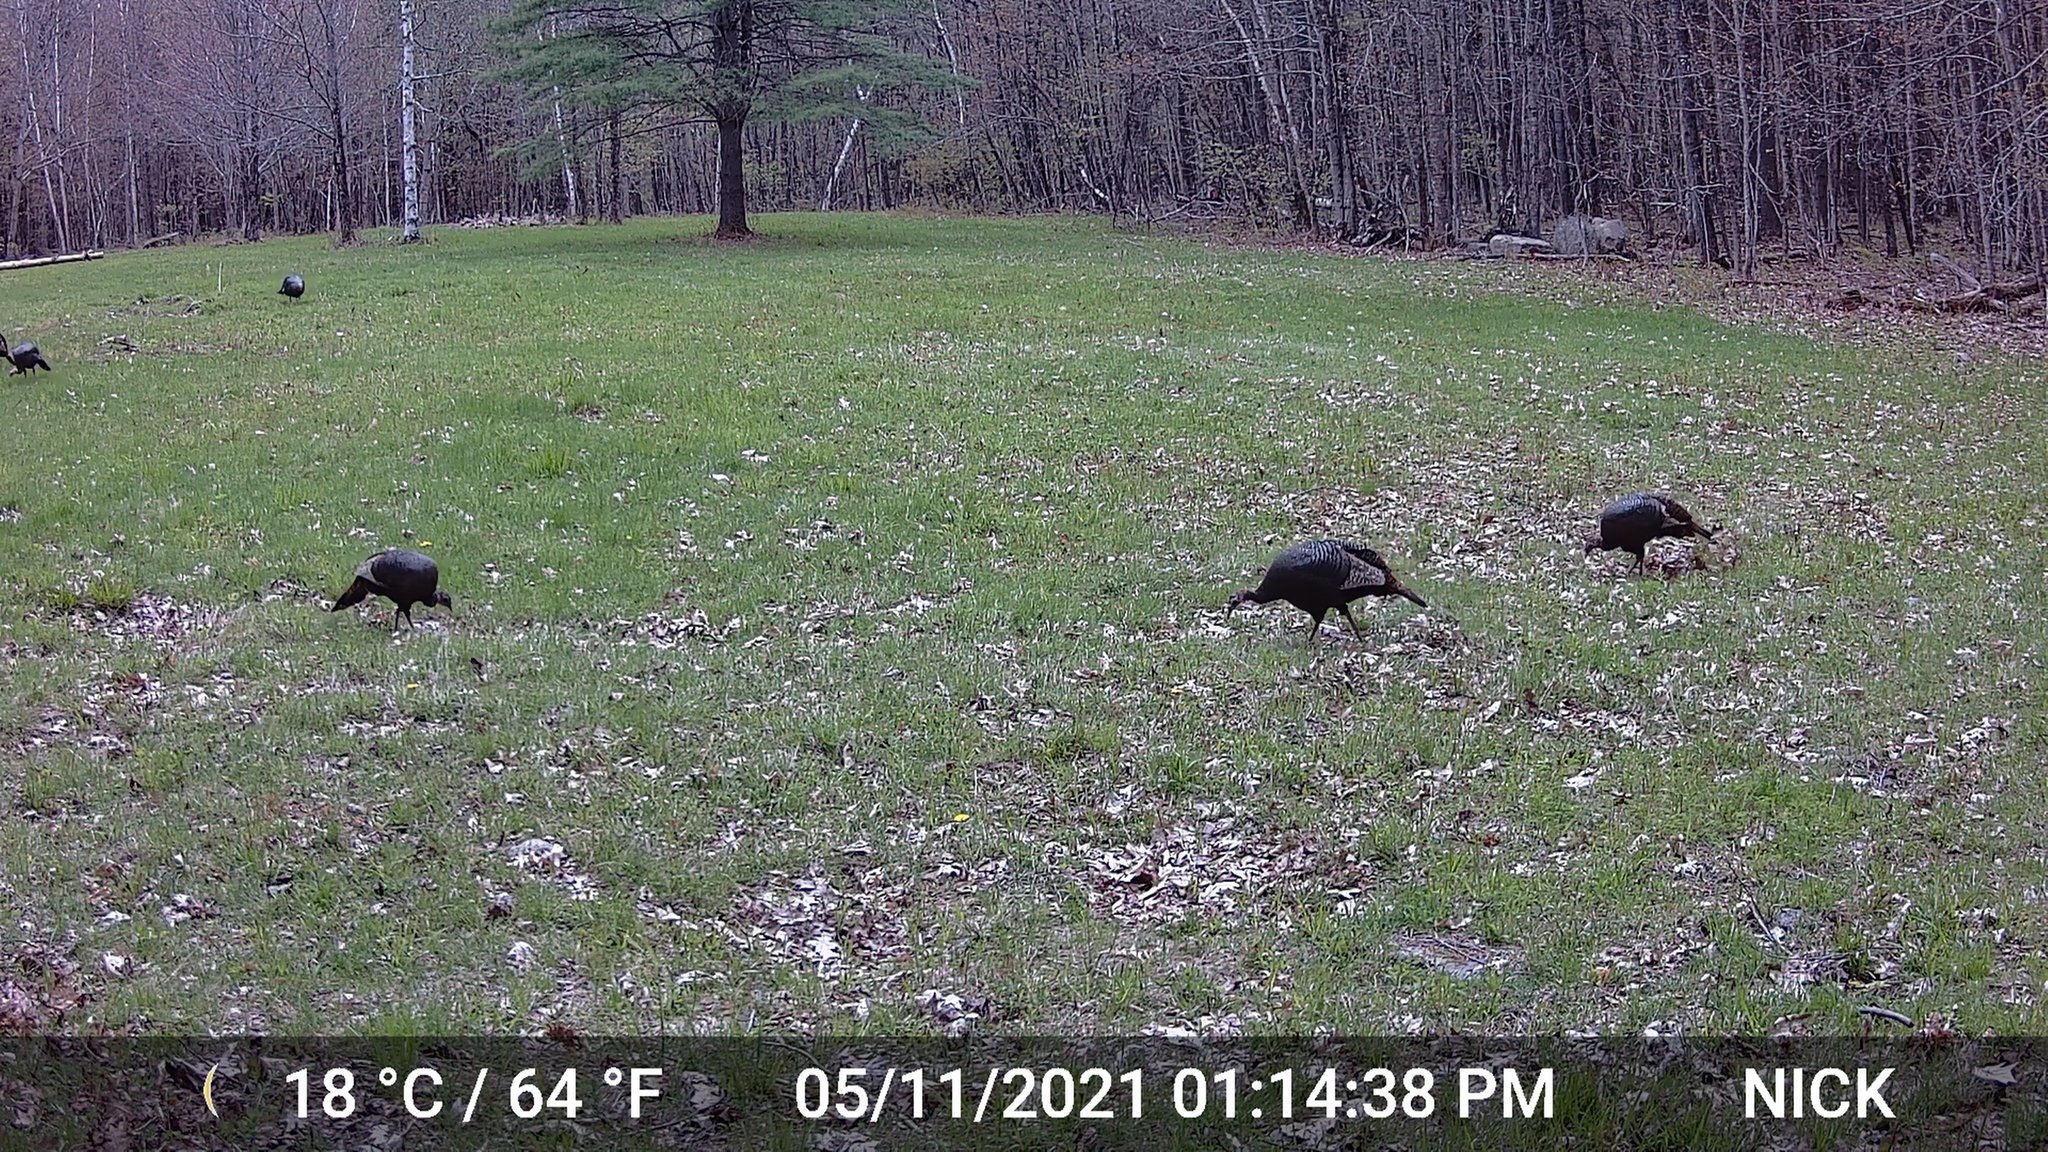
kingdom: Animalia
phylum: Chordata
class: Aves
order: Galliformes
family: Phasianidae
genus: Meleagris
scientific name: Meleagris gallopavo
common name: Wild turkey
